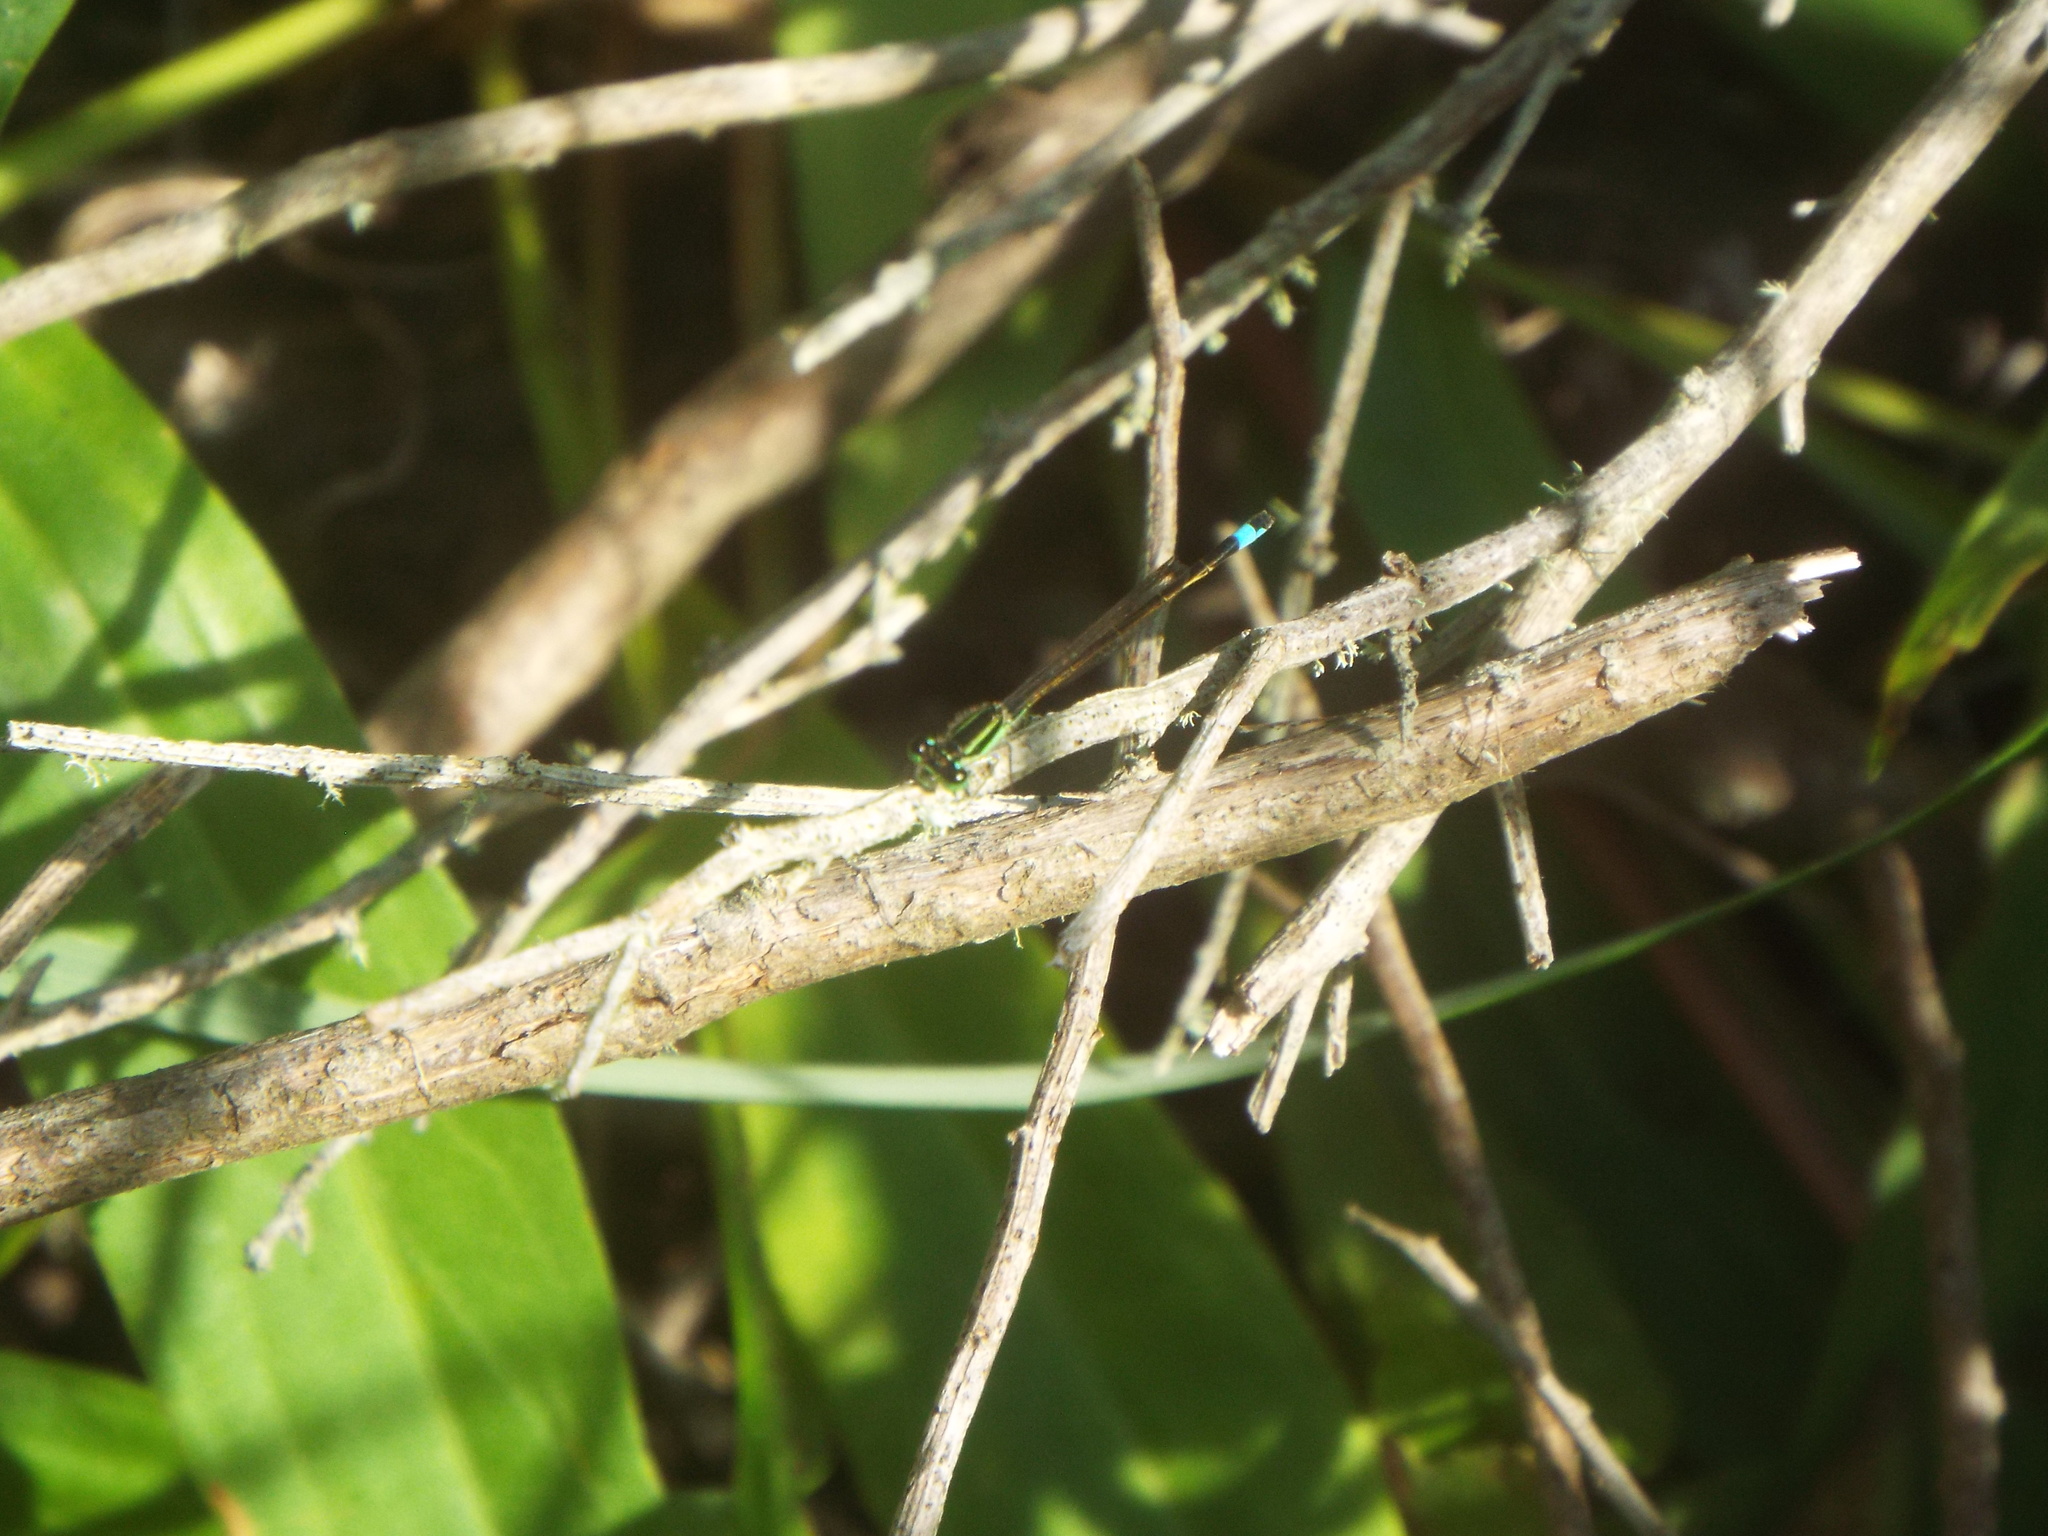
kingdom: Animalia
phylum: Arthropoda
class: Insecta
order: Odonata
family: Coenagrionidae
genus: Ischnura
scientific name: Ischnura ramburii
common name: Rambur's forktail
